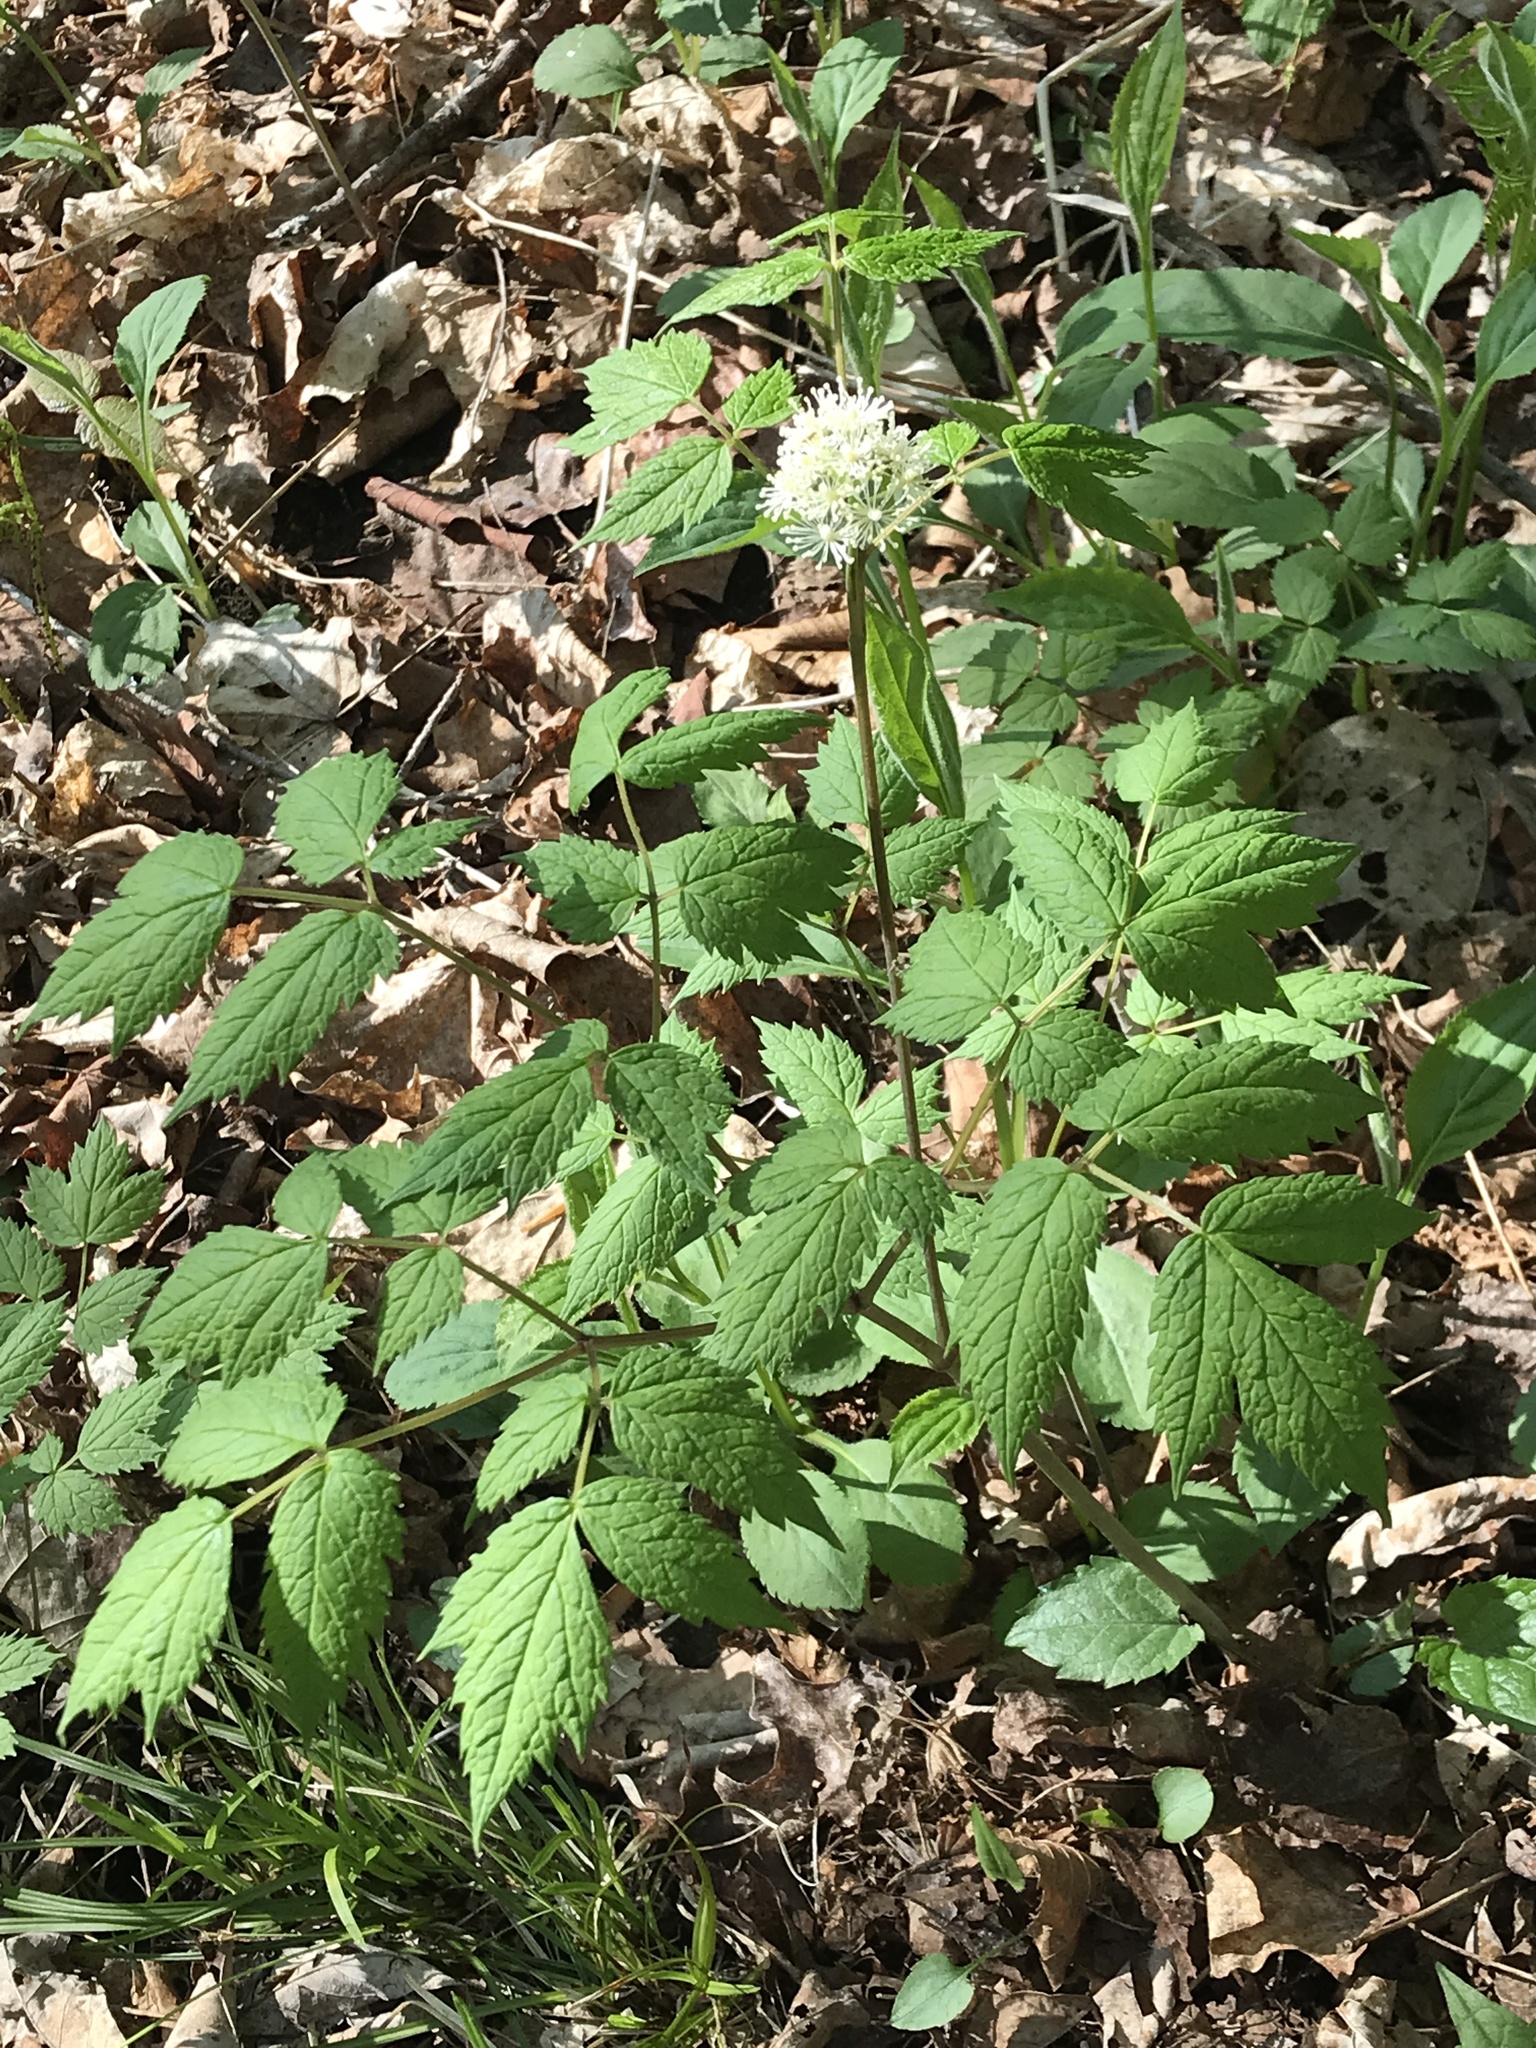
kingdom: Plantae
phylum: Tracheophyta
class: Magnoliopsida
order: Ranunculales
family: Ranunculaceae
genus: Actaea
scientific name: Actaea pachypoda
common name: Doll's-eyes
